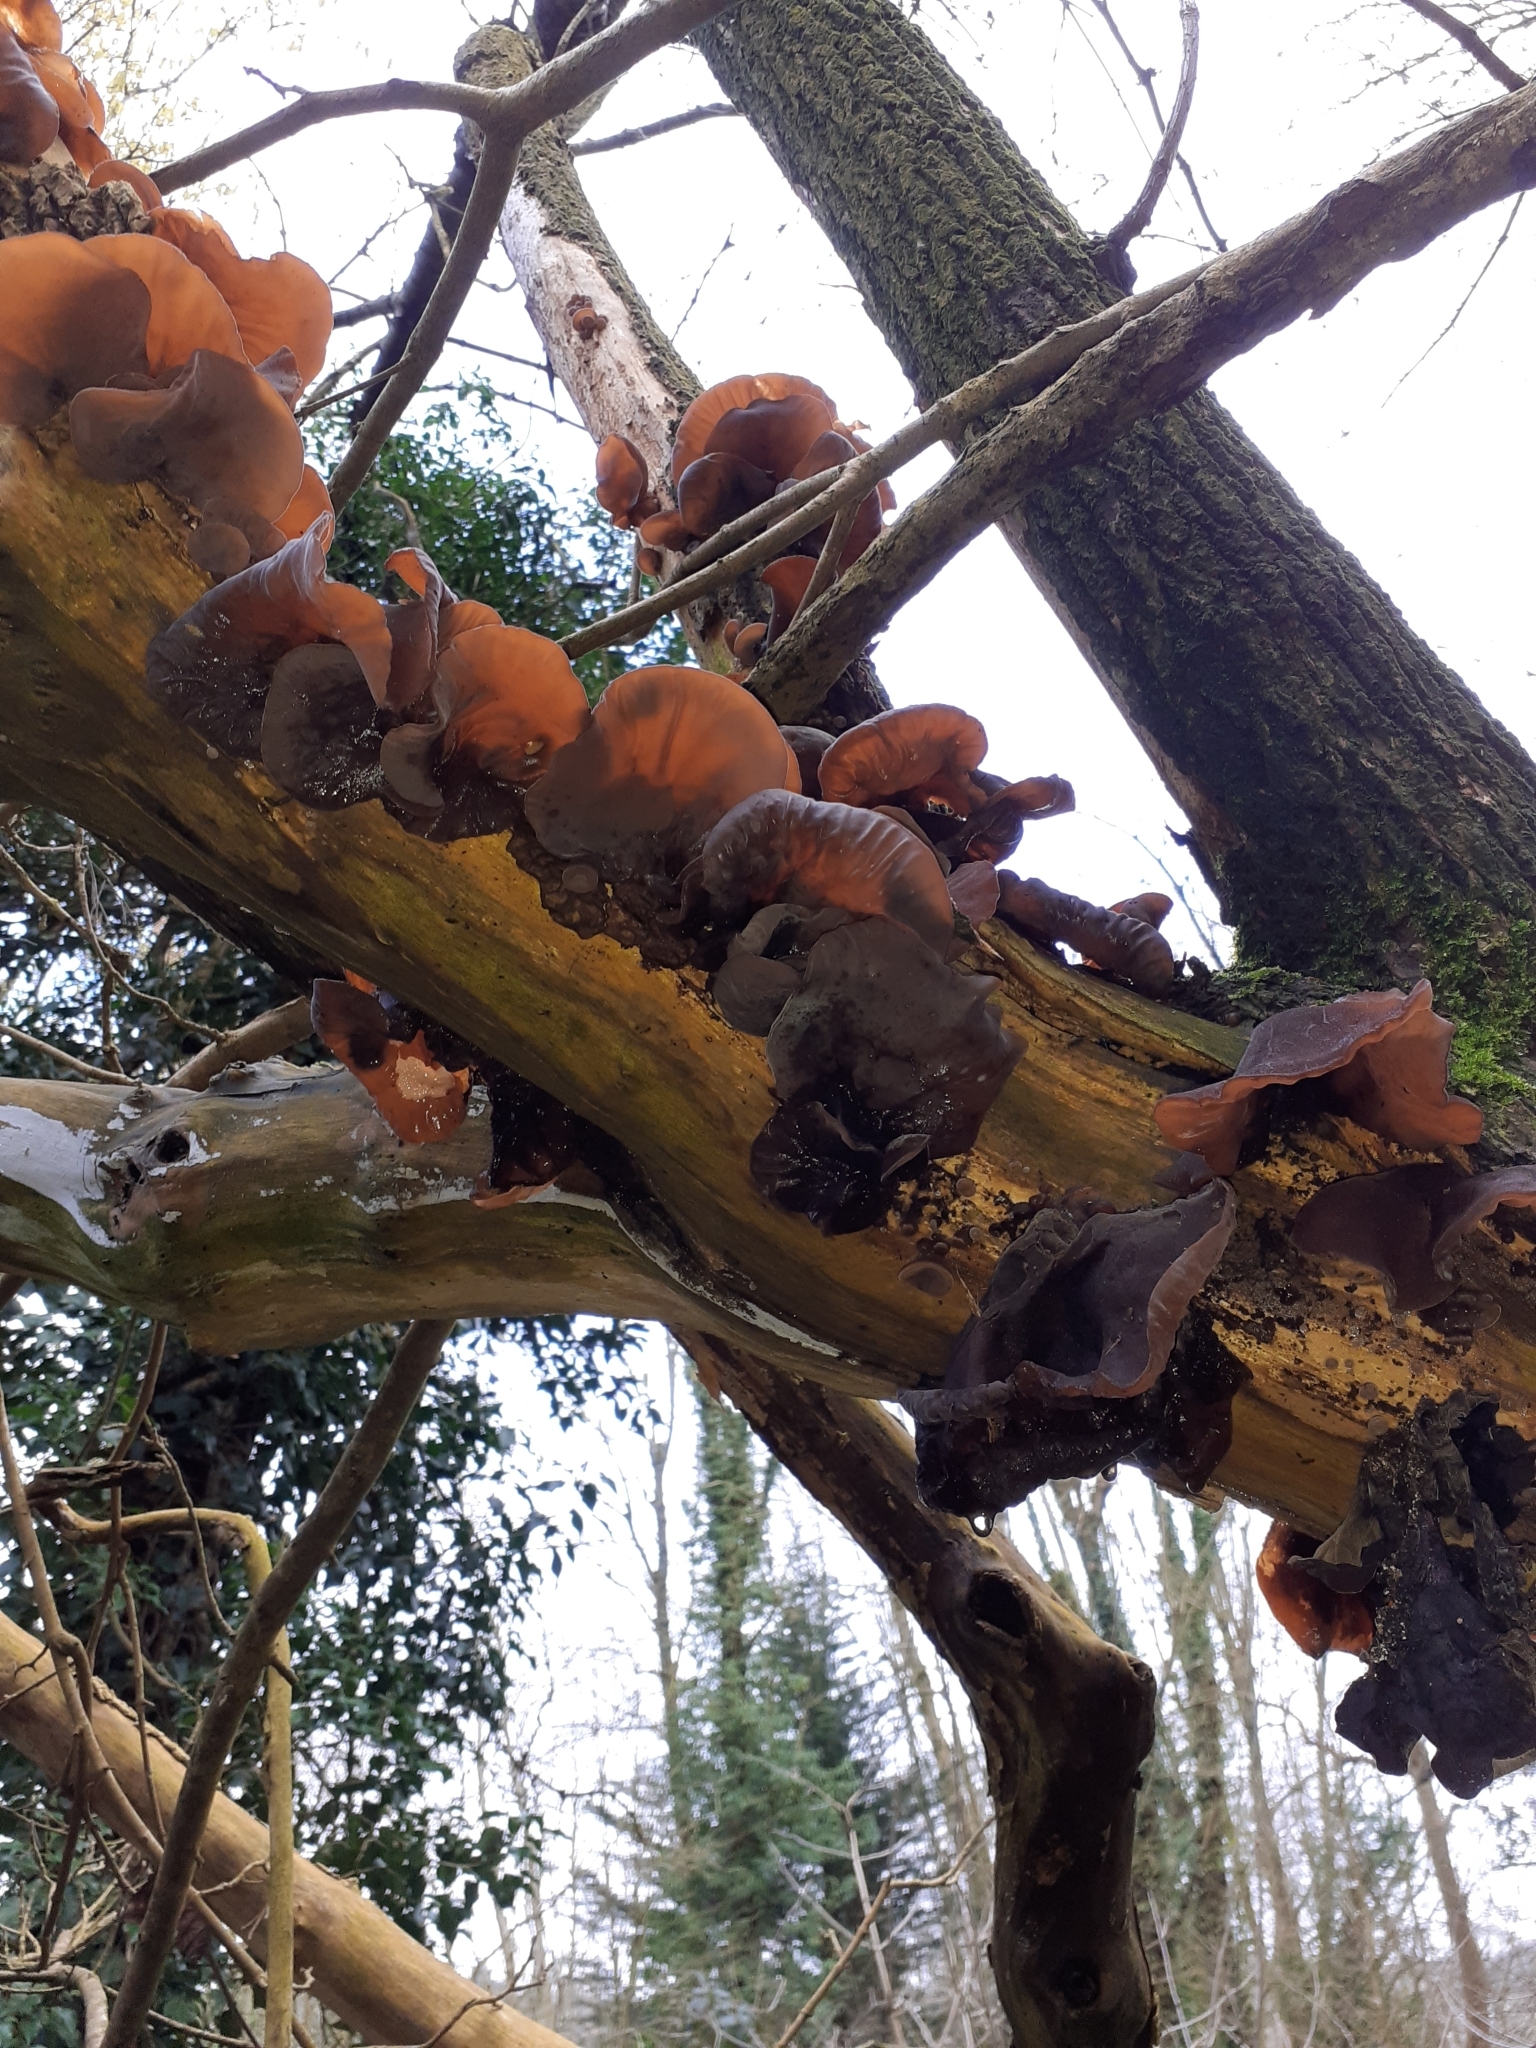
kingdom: Fungi
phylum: Basidiomycota
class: Agaricomycetes
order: Auriculariales
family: Auriculariaceae
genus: Auricularia
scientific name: Auricularia auricula-judae
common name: Jelly ear
